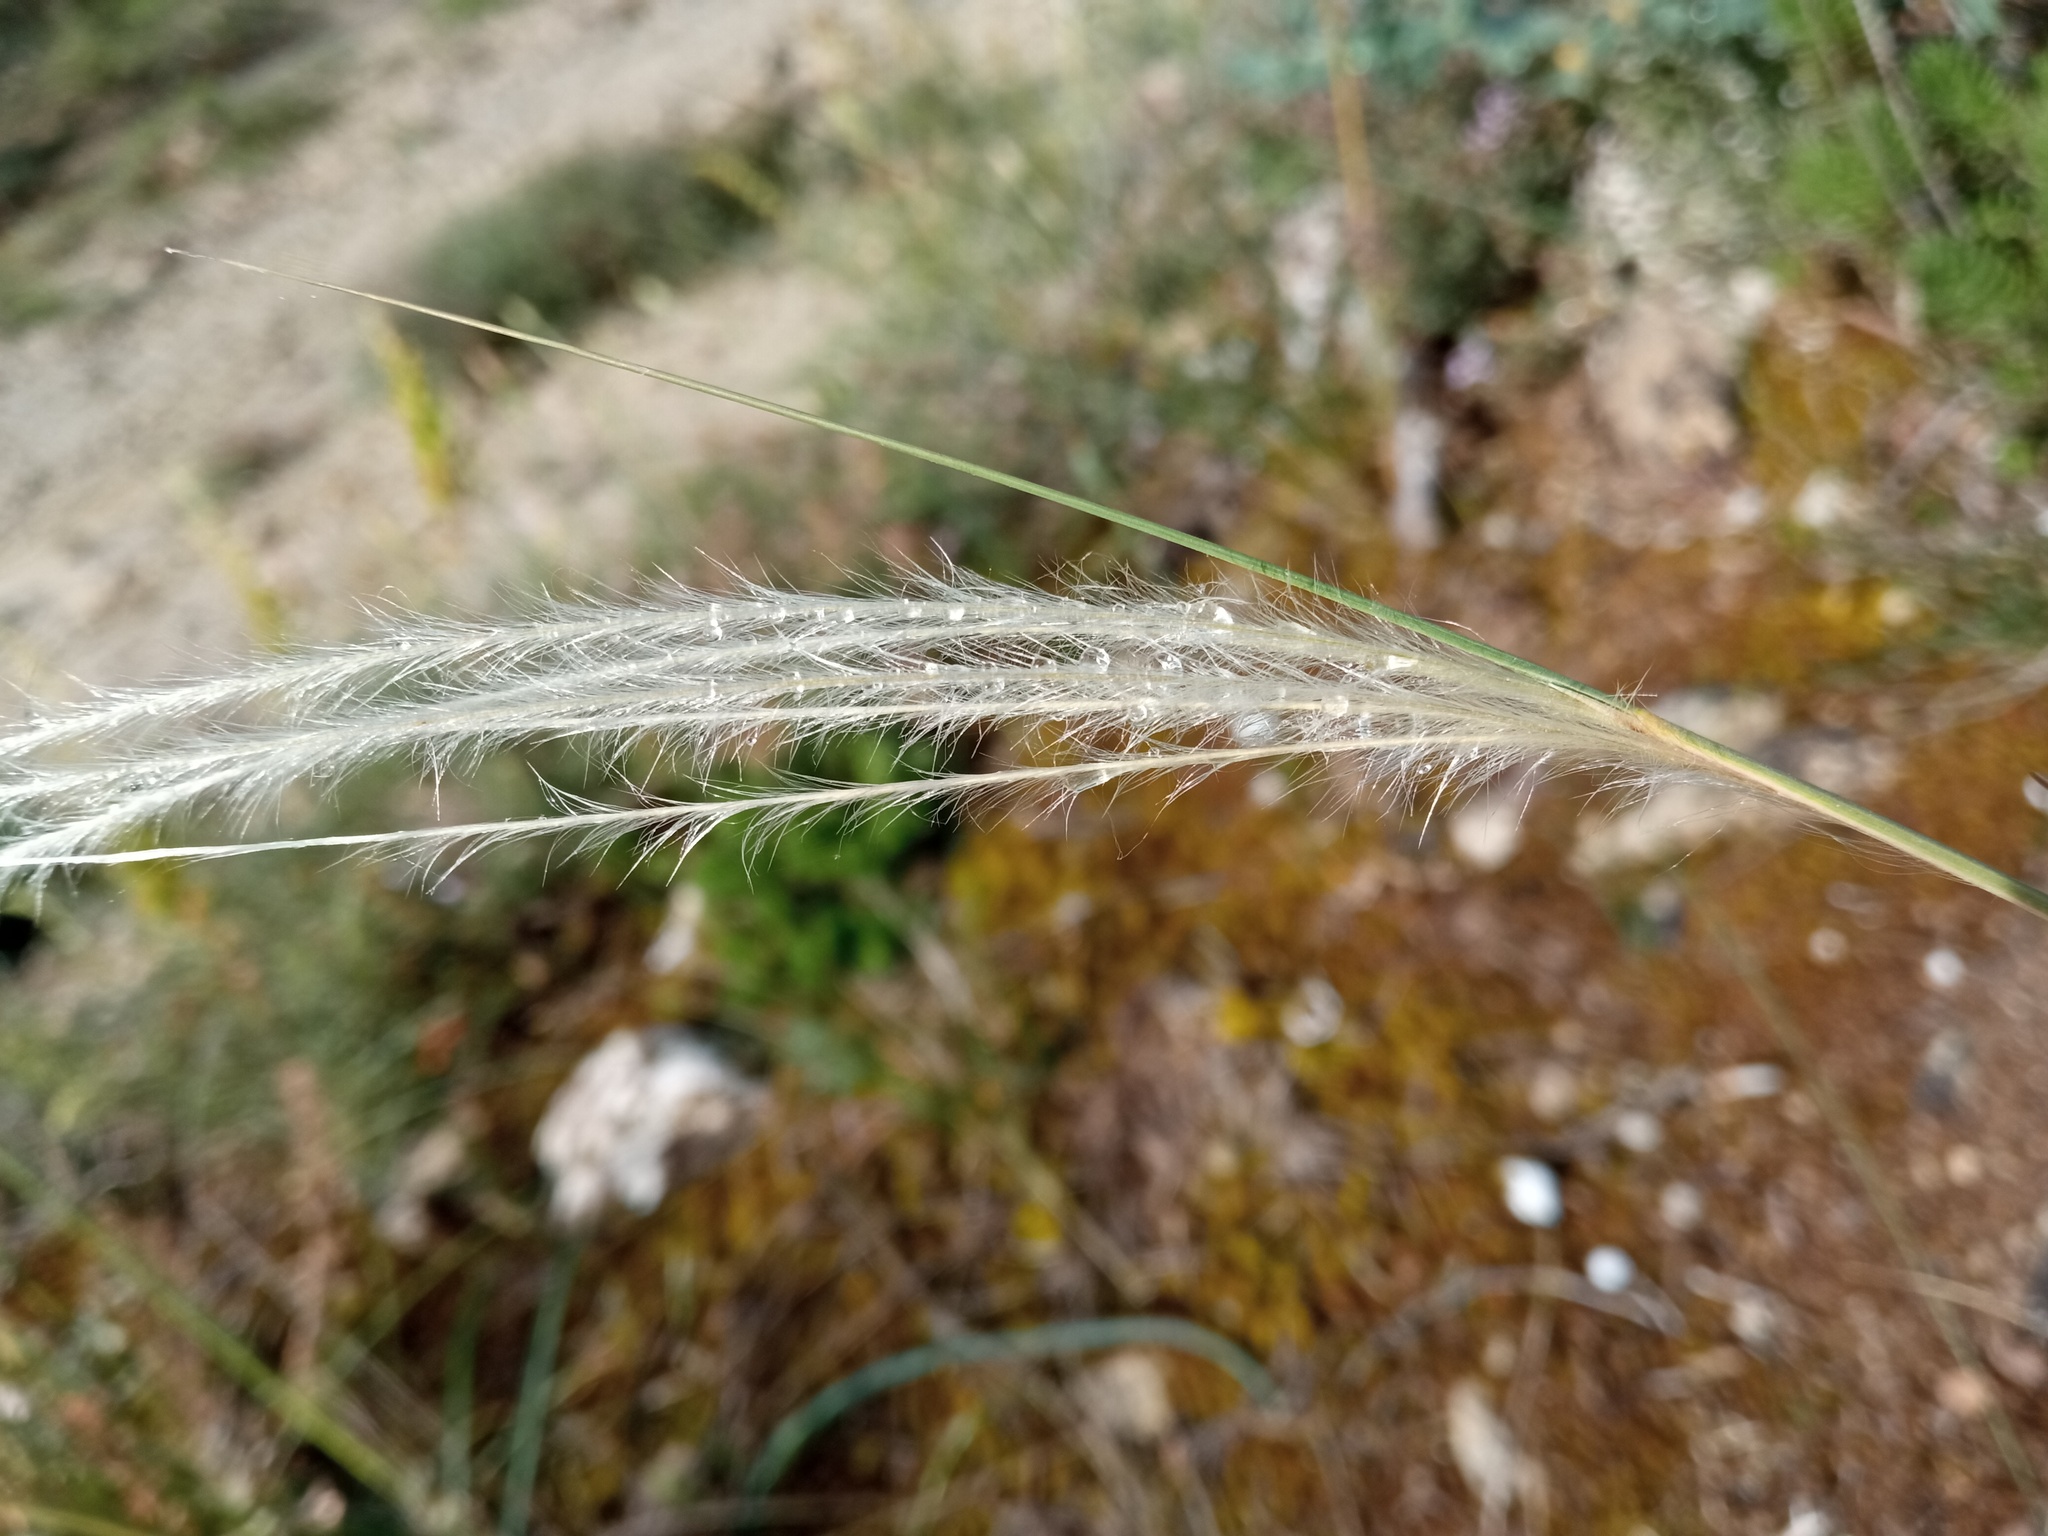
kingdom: Plantae
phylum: Tracheophyta
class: Liliopsida
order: Poales
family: Poaceae
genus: Stipa
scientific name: Stipa iberica
